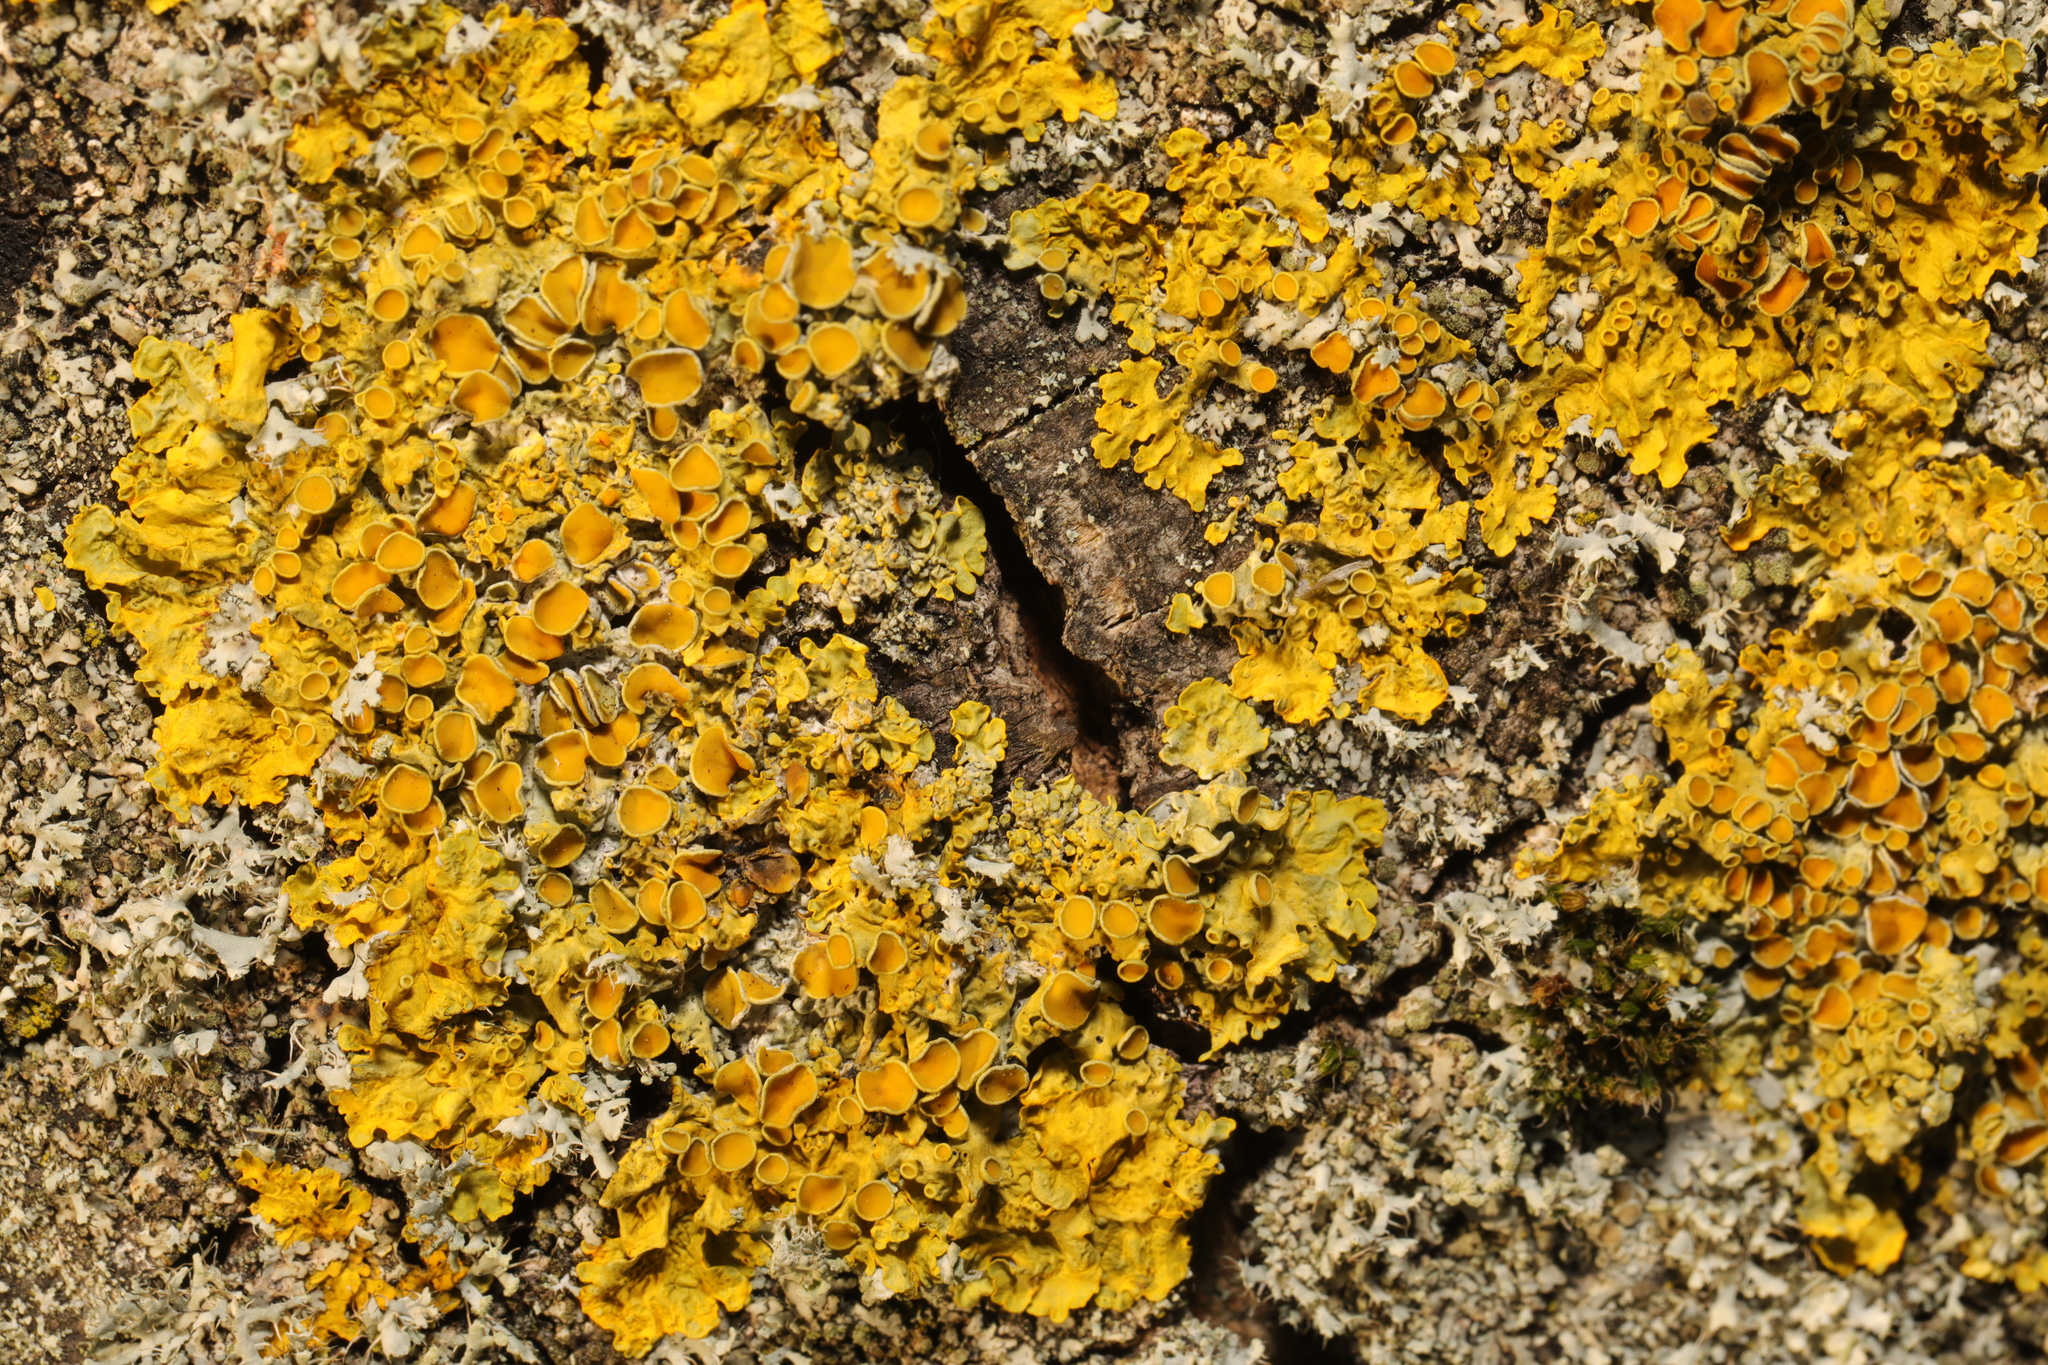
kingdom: Fungi
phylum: Ascomycota
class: Lecanoromycetes
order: Teloschistales
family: Teloschistaceae
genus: Xanthoria
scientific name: Xanthoria parietina
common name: Common orange lichen
